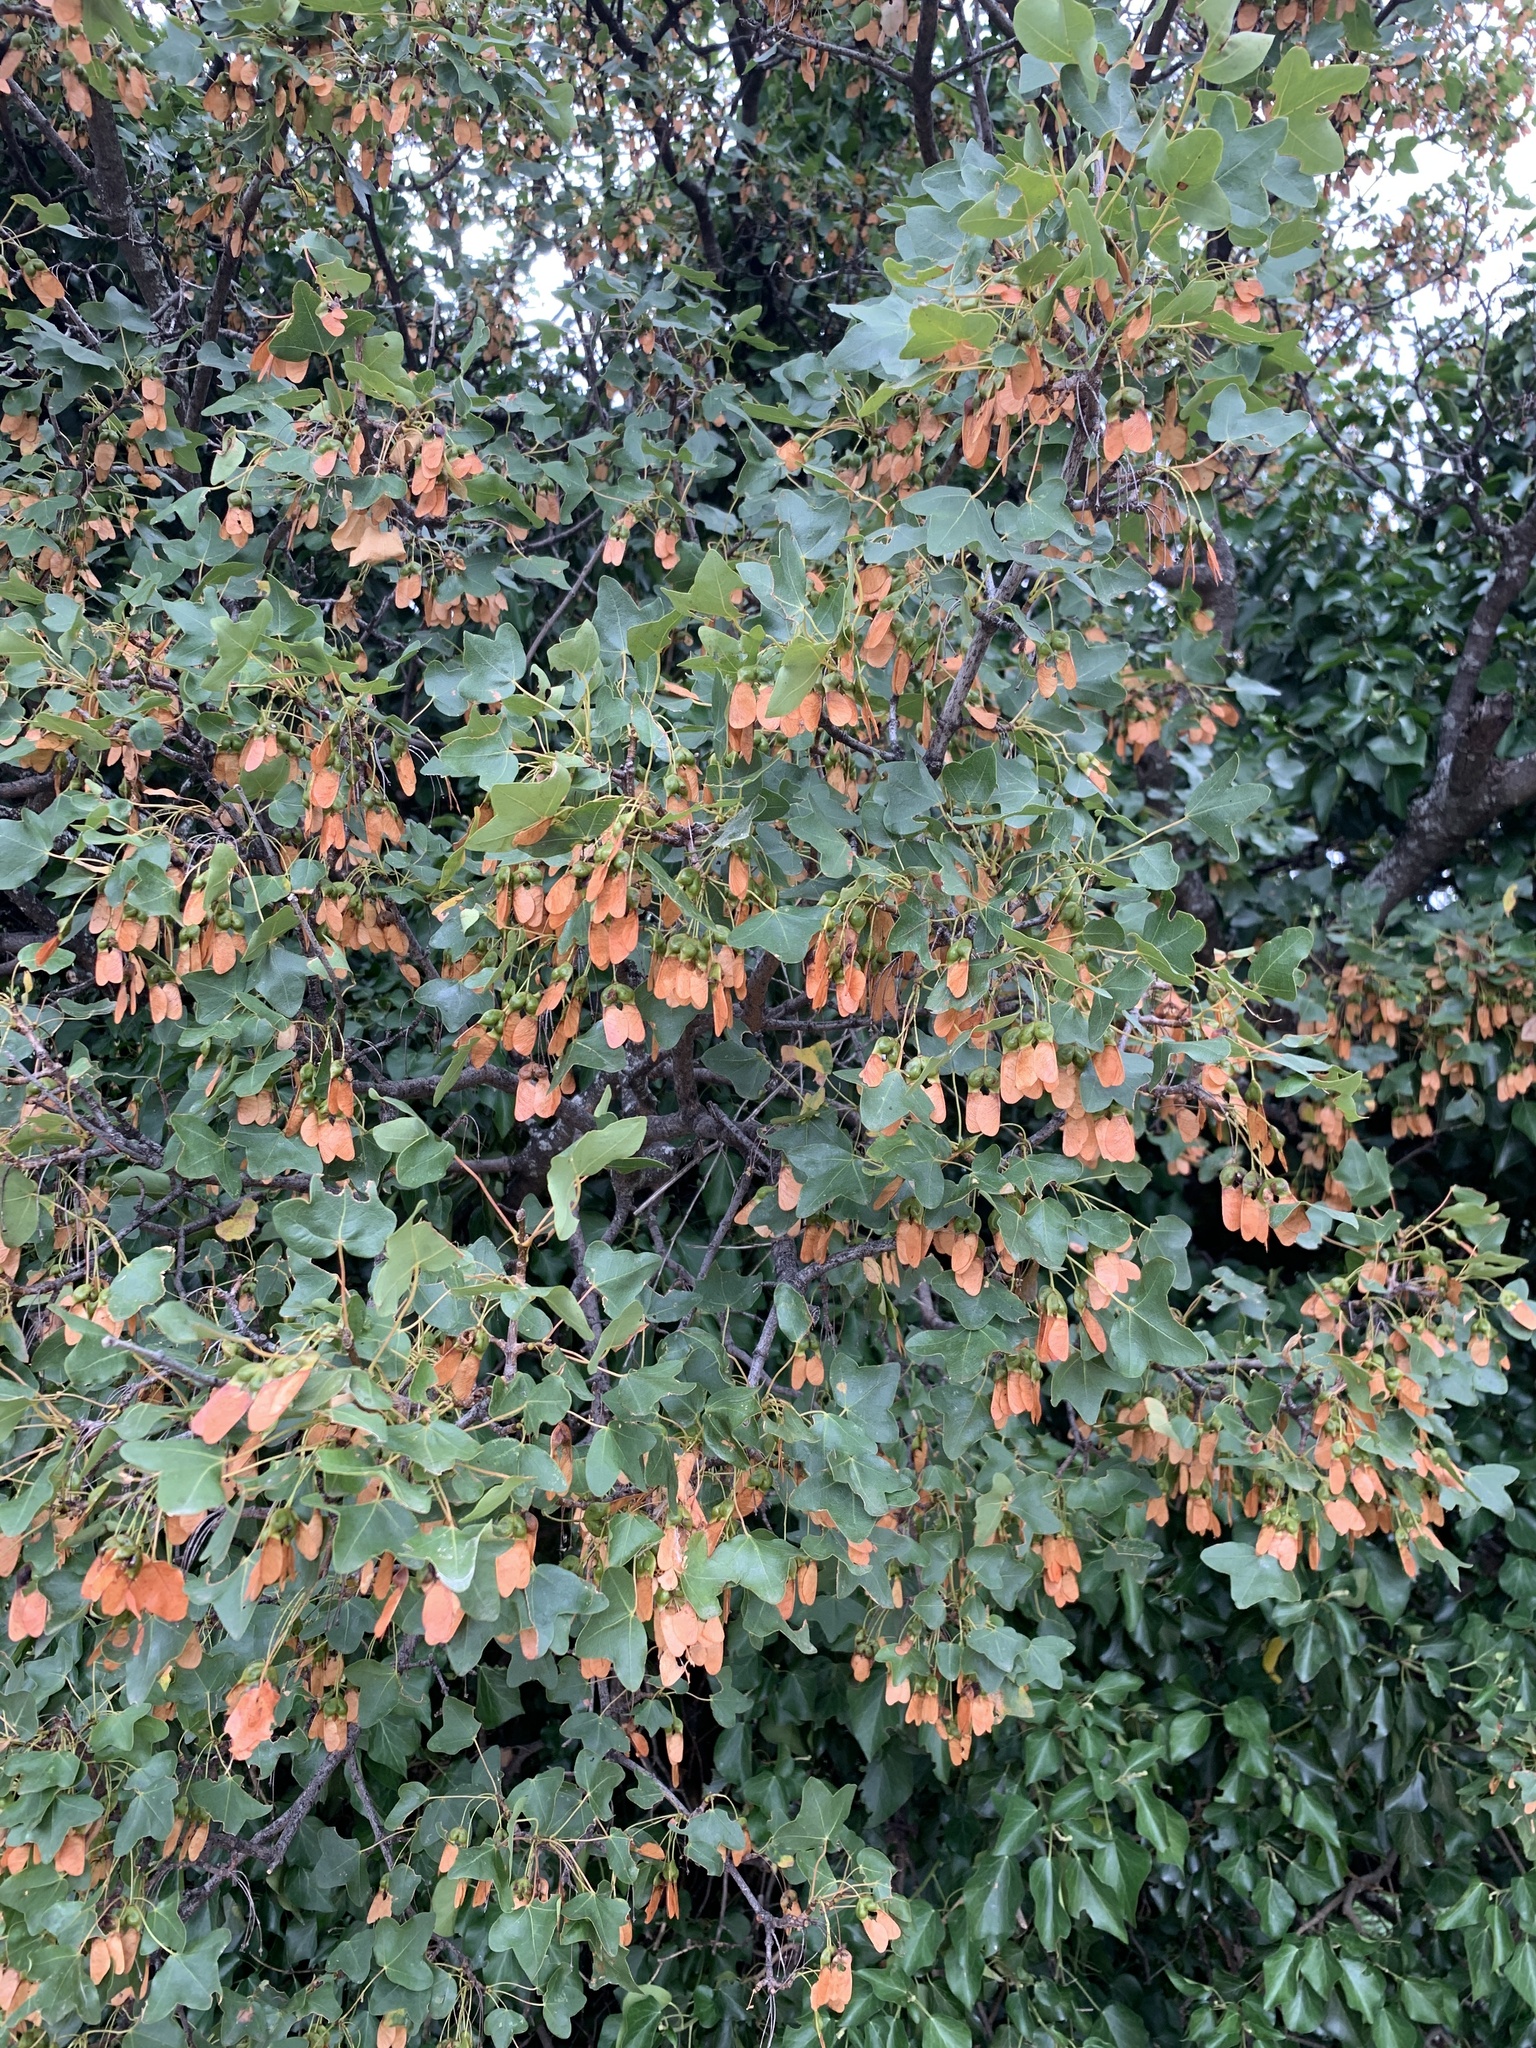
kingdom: Plantae
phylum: Tracheophyta
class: Magnoliopsida
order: Sapindales
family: Sapindaceae
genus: Acer
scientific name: Acer monspessulanum
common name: Montpellier maple
